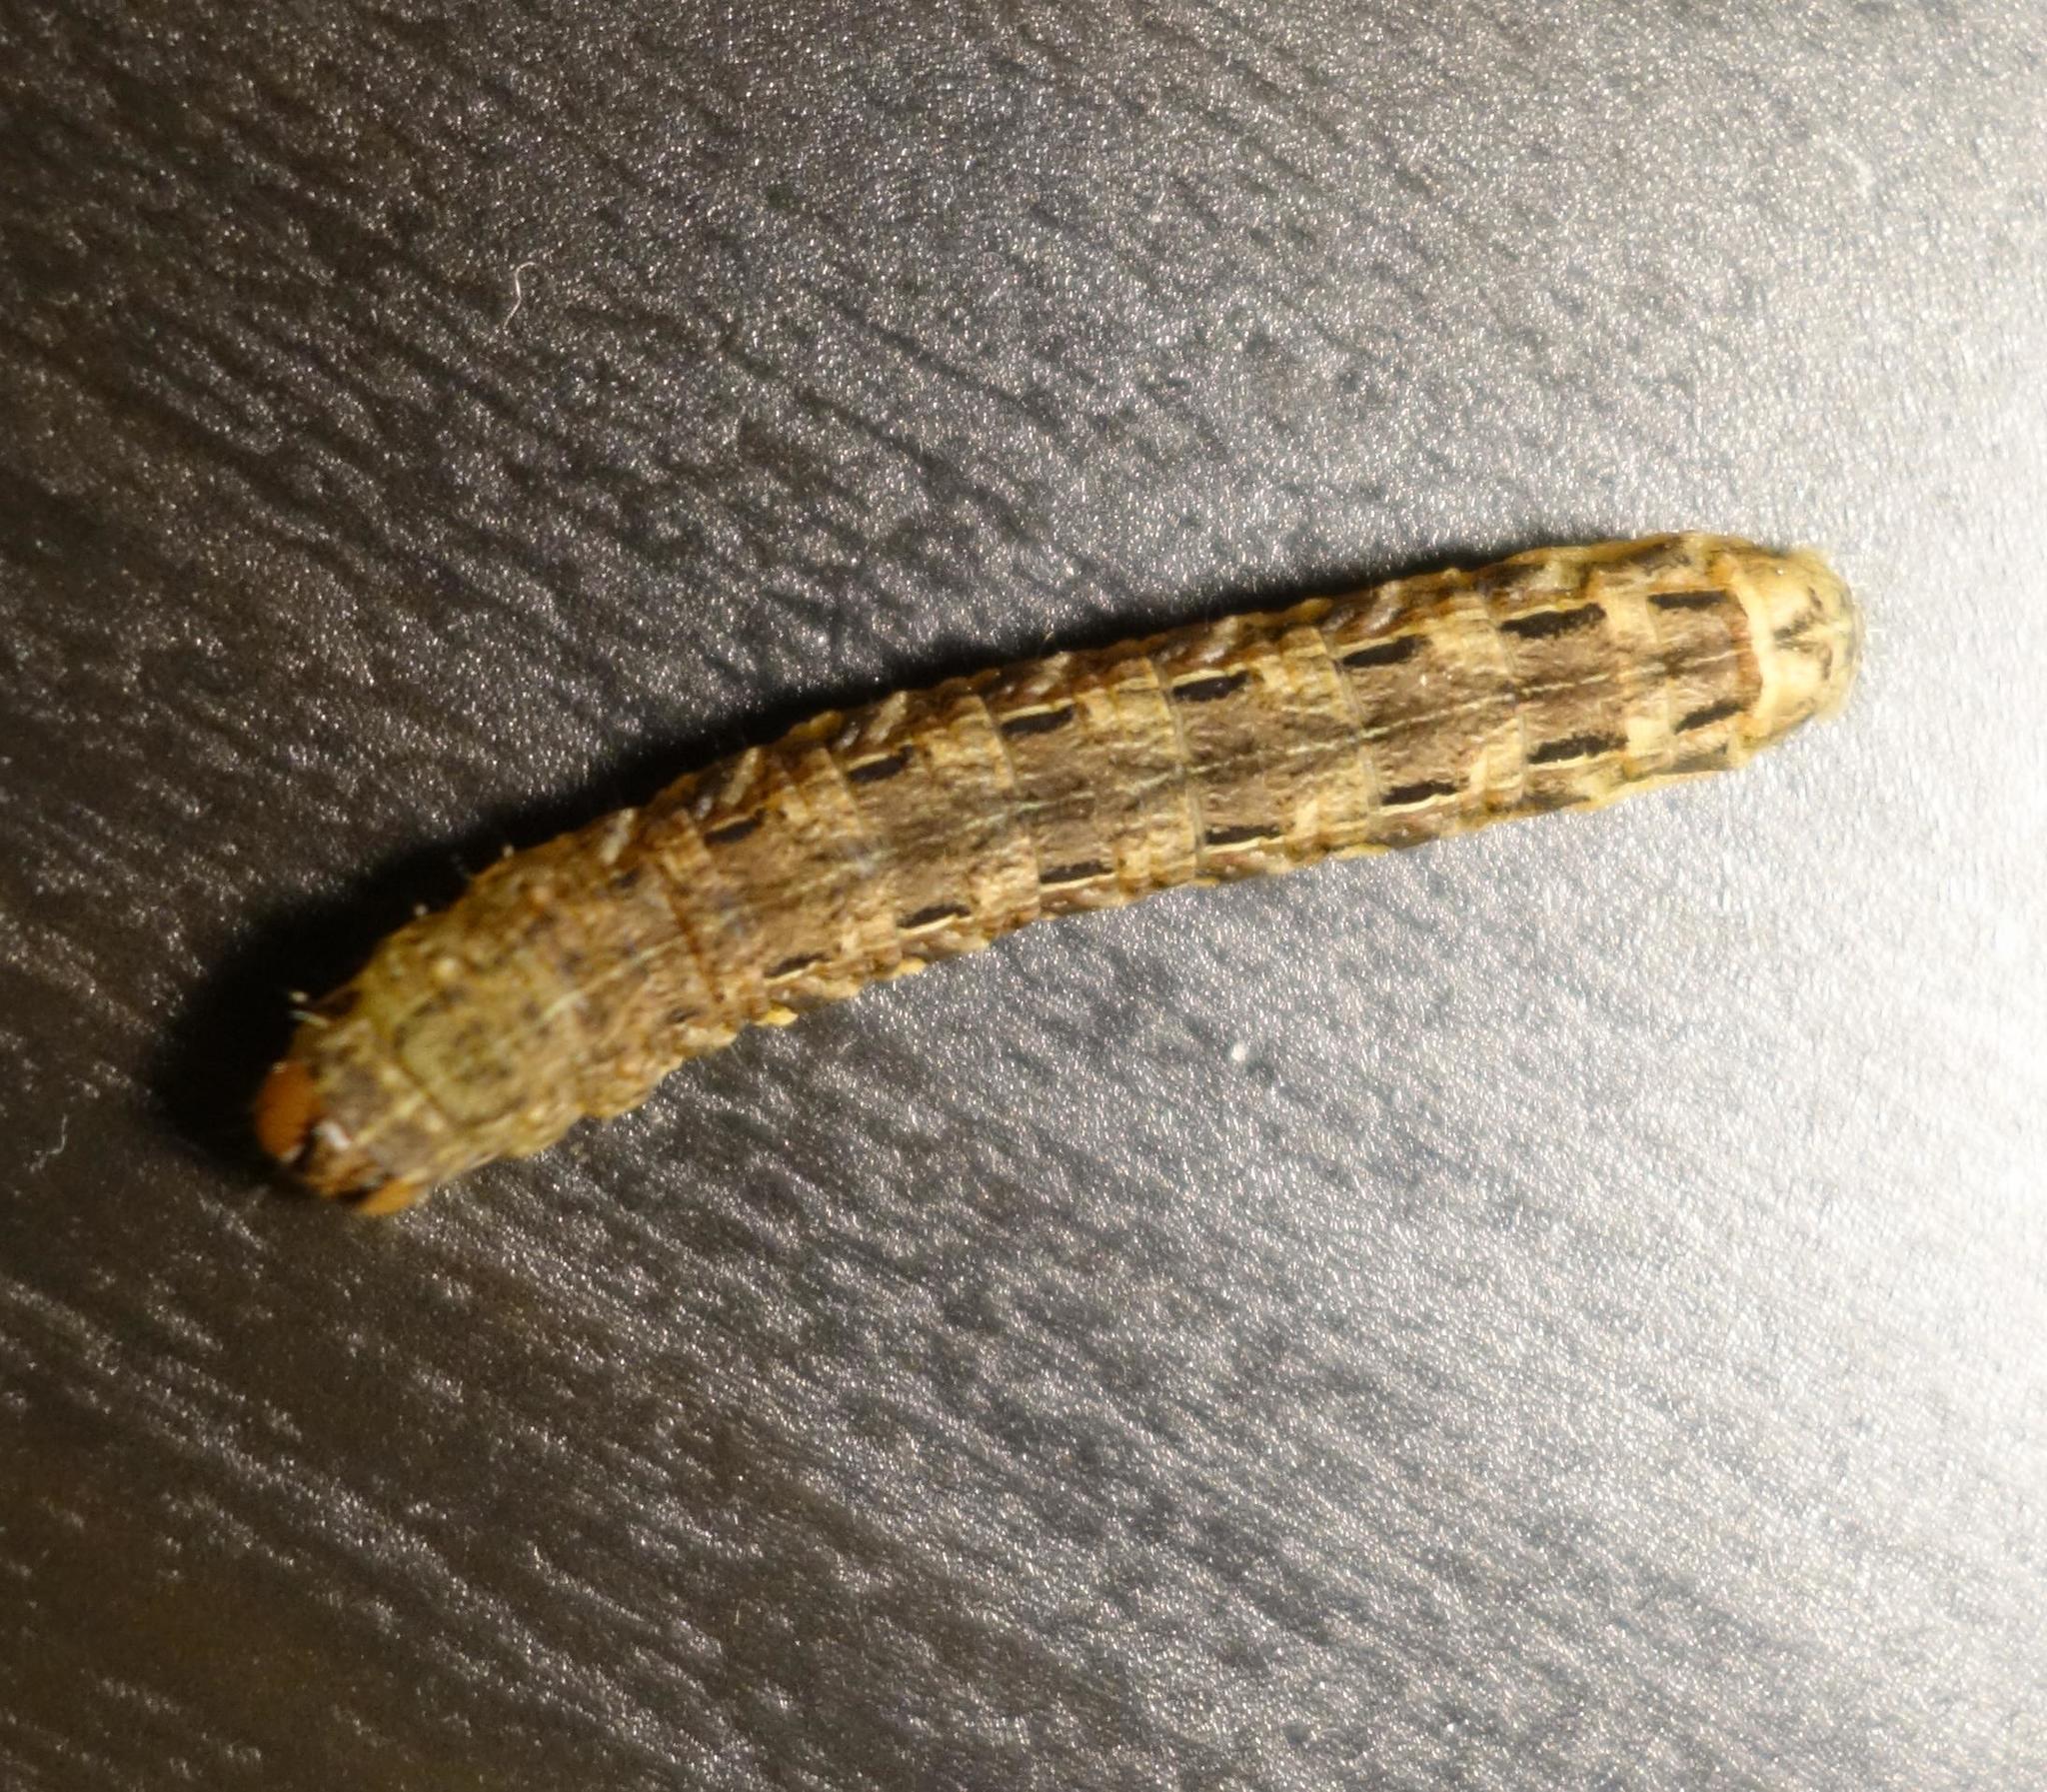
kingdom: Animalia
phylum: Arthropoda
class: Insecta
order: Lepidoptera
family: Noctuidae
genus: Noctua
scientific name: Noctua pronuba
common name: Large yellow underwing
